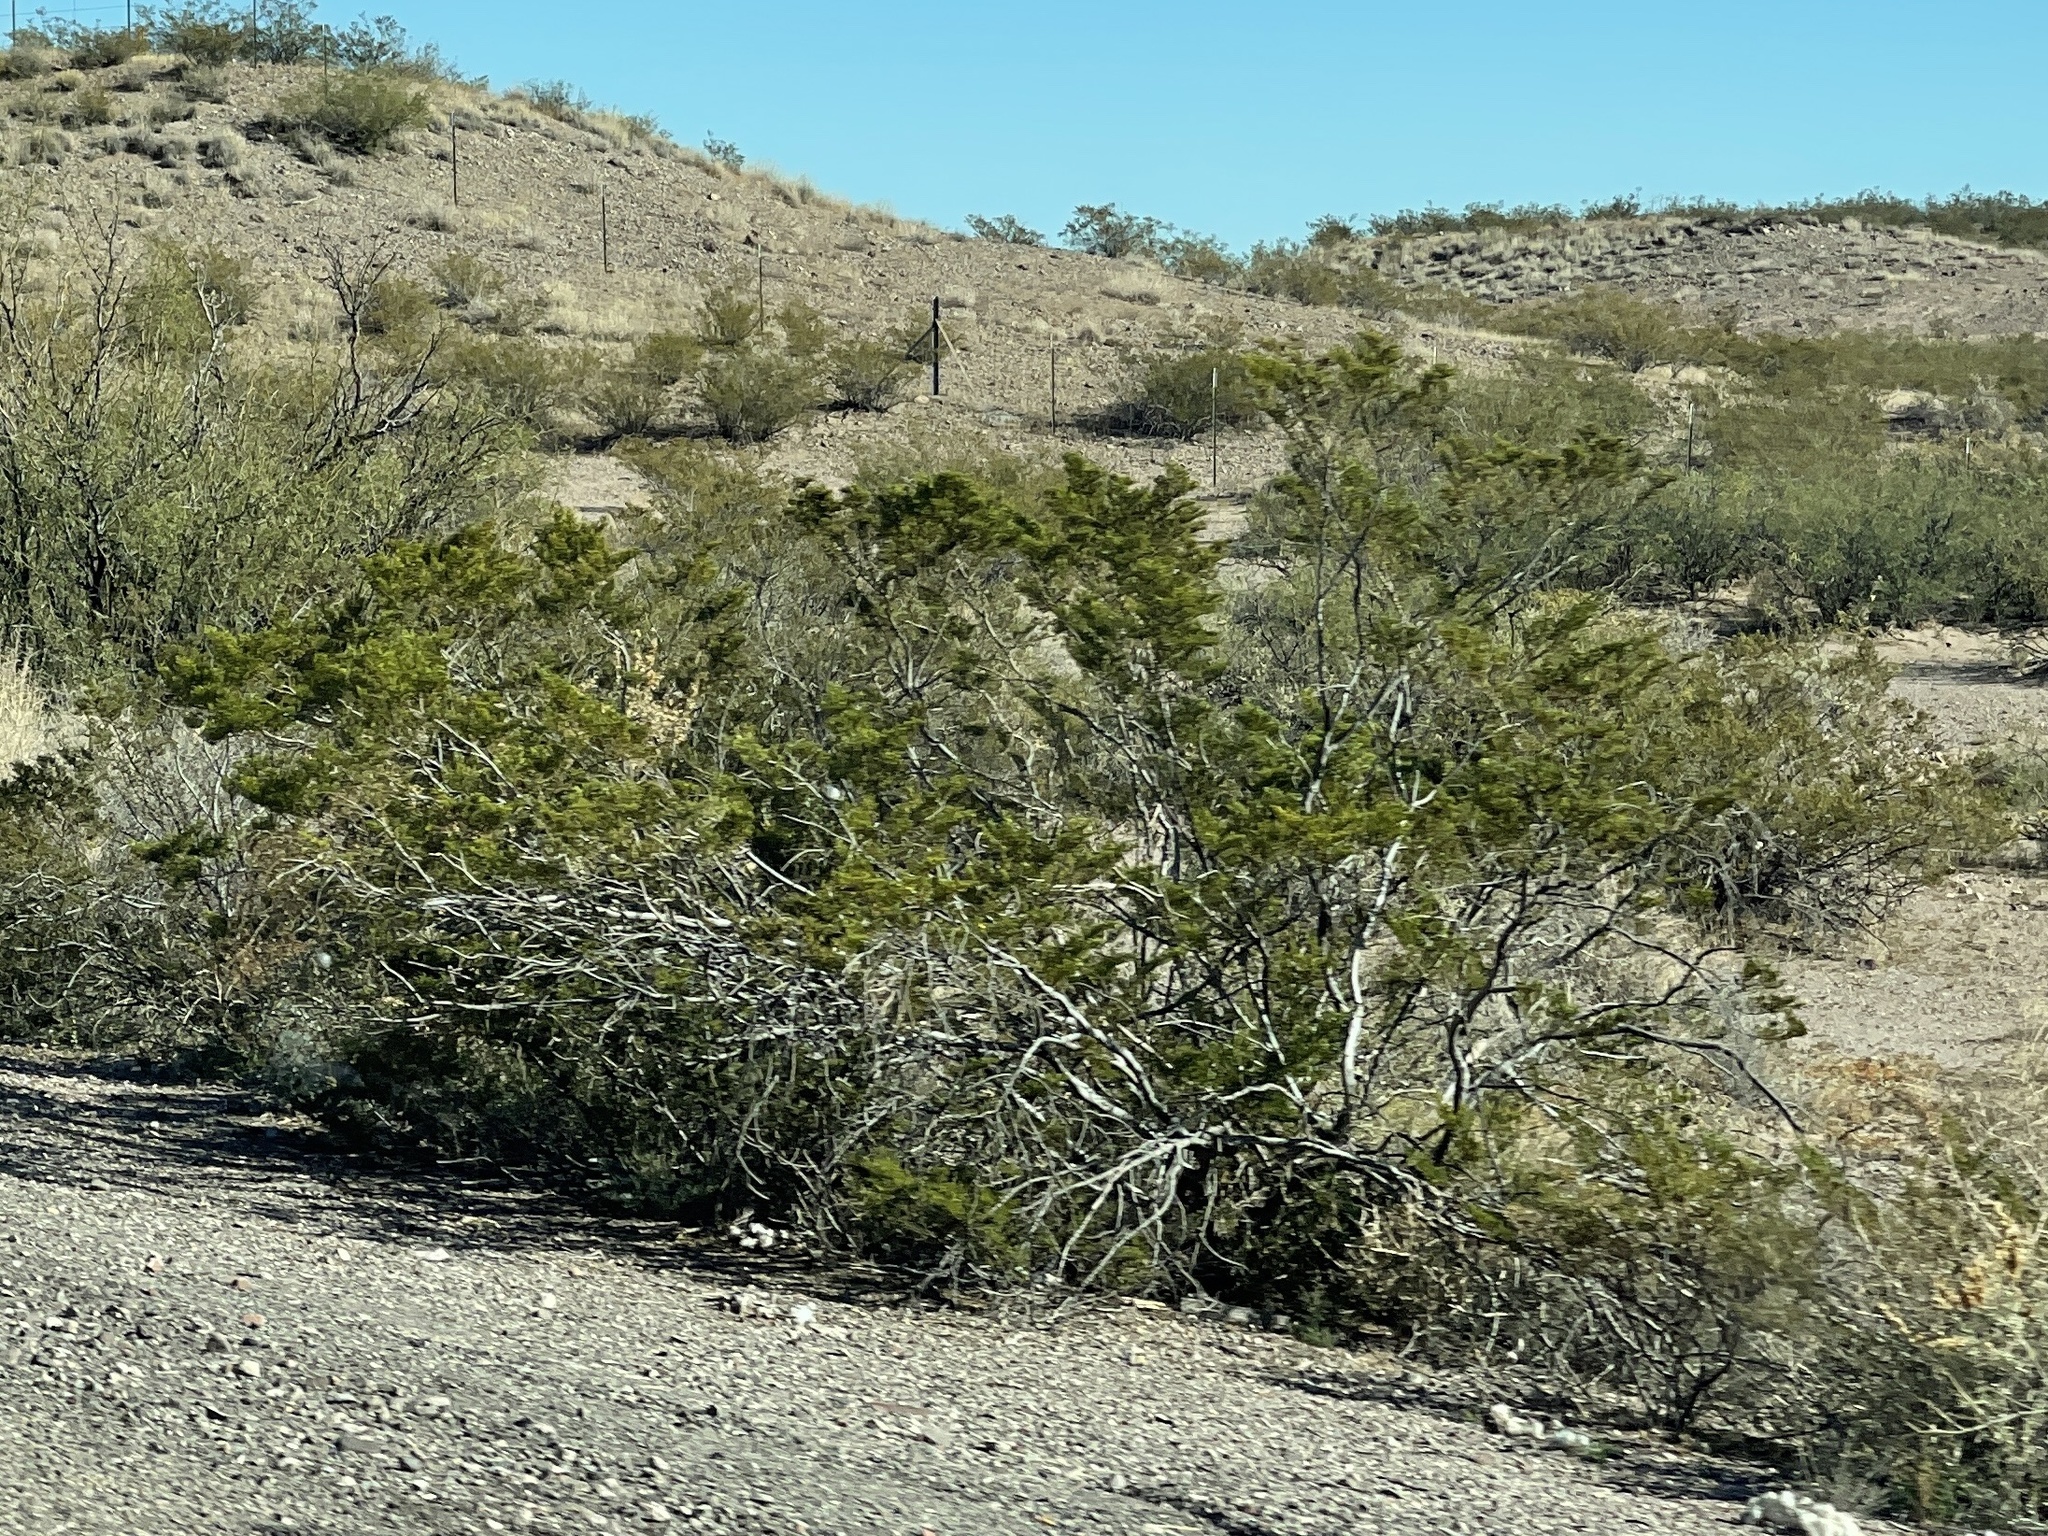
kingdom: Plantae
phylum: Tracheophyta
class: Magnoliopsida
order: Zygophyllales
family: Zygophyllaceae
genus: Larrea
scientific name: Larrea tridentata
